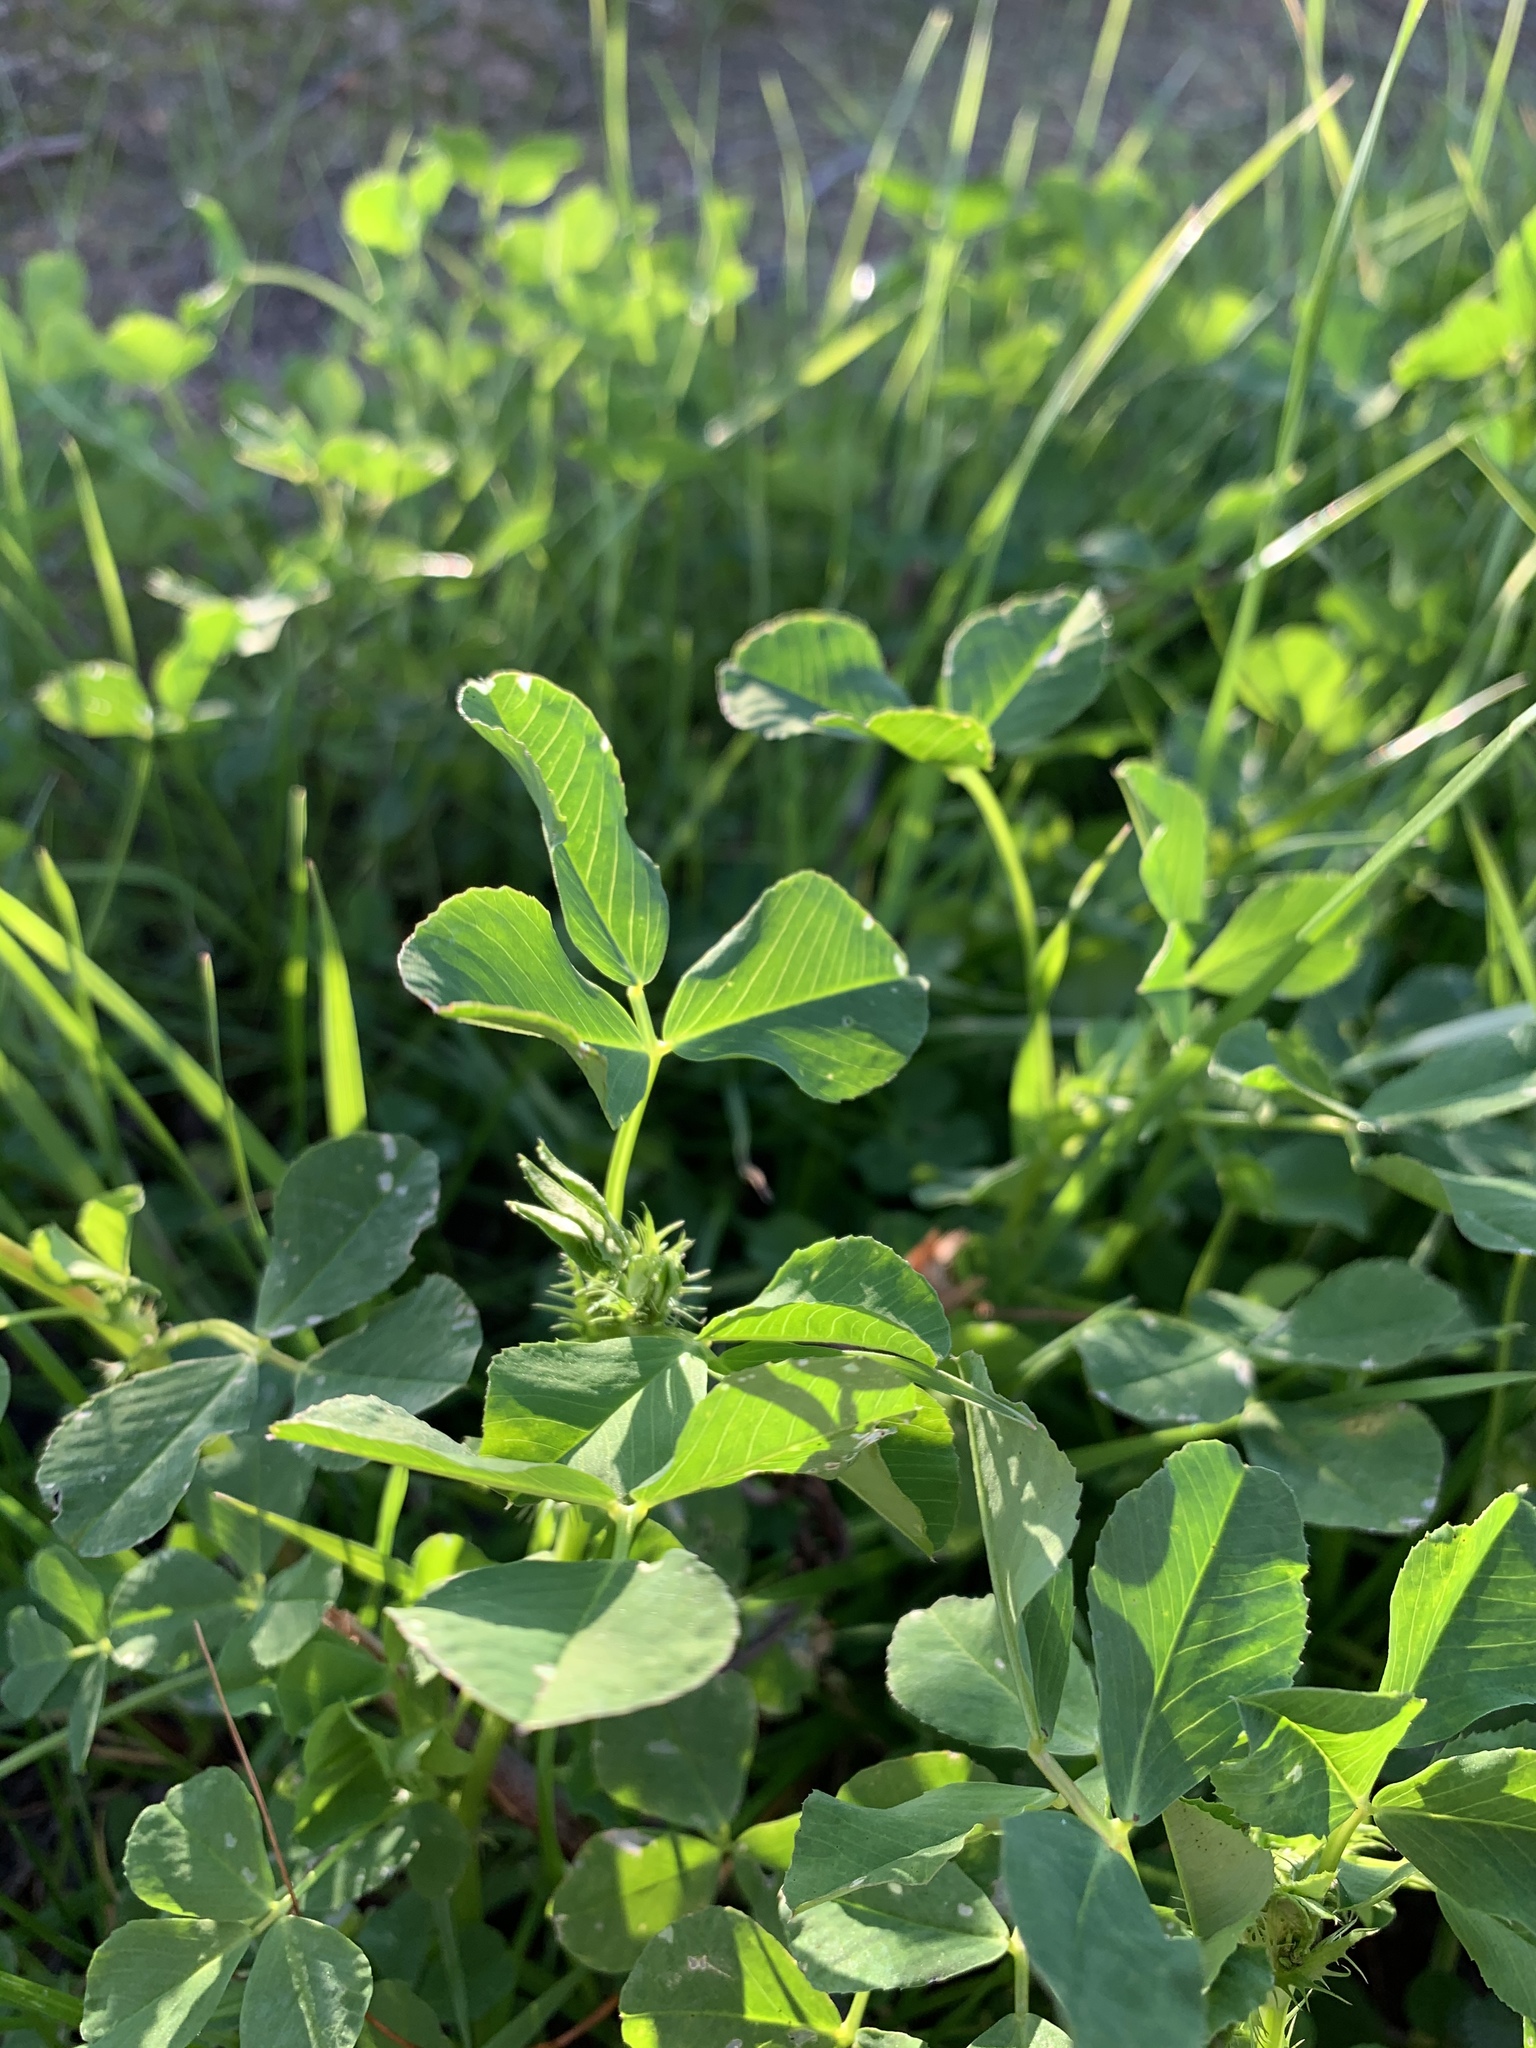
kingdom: Plantae
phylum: Tracheophyta
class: Magnoliopsida
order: Fabales
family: Fabaceae
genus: Medicago
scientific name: Medicago polymorpha
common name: Burclover
